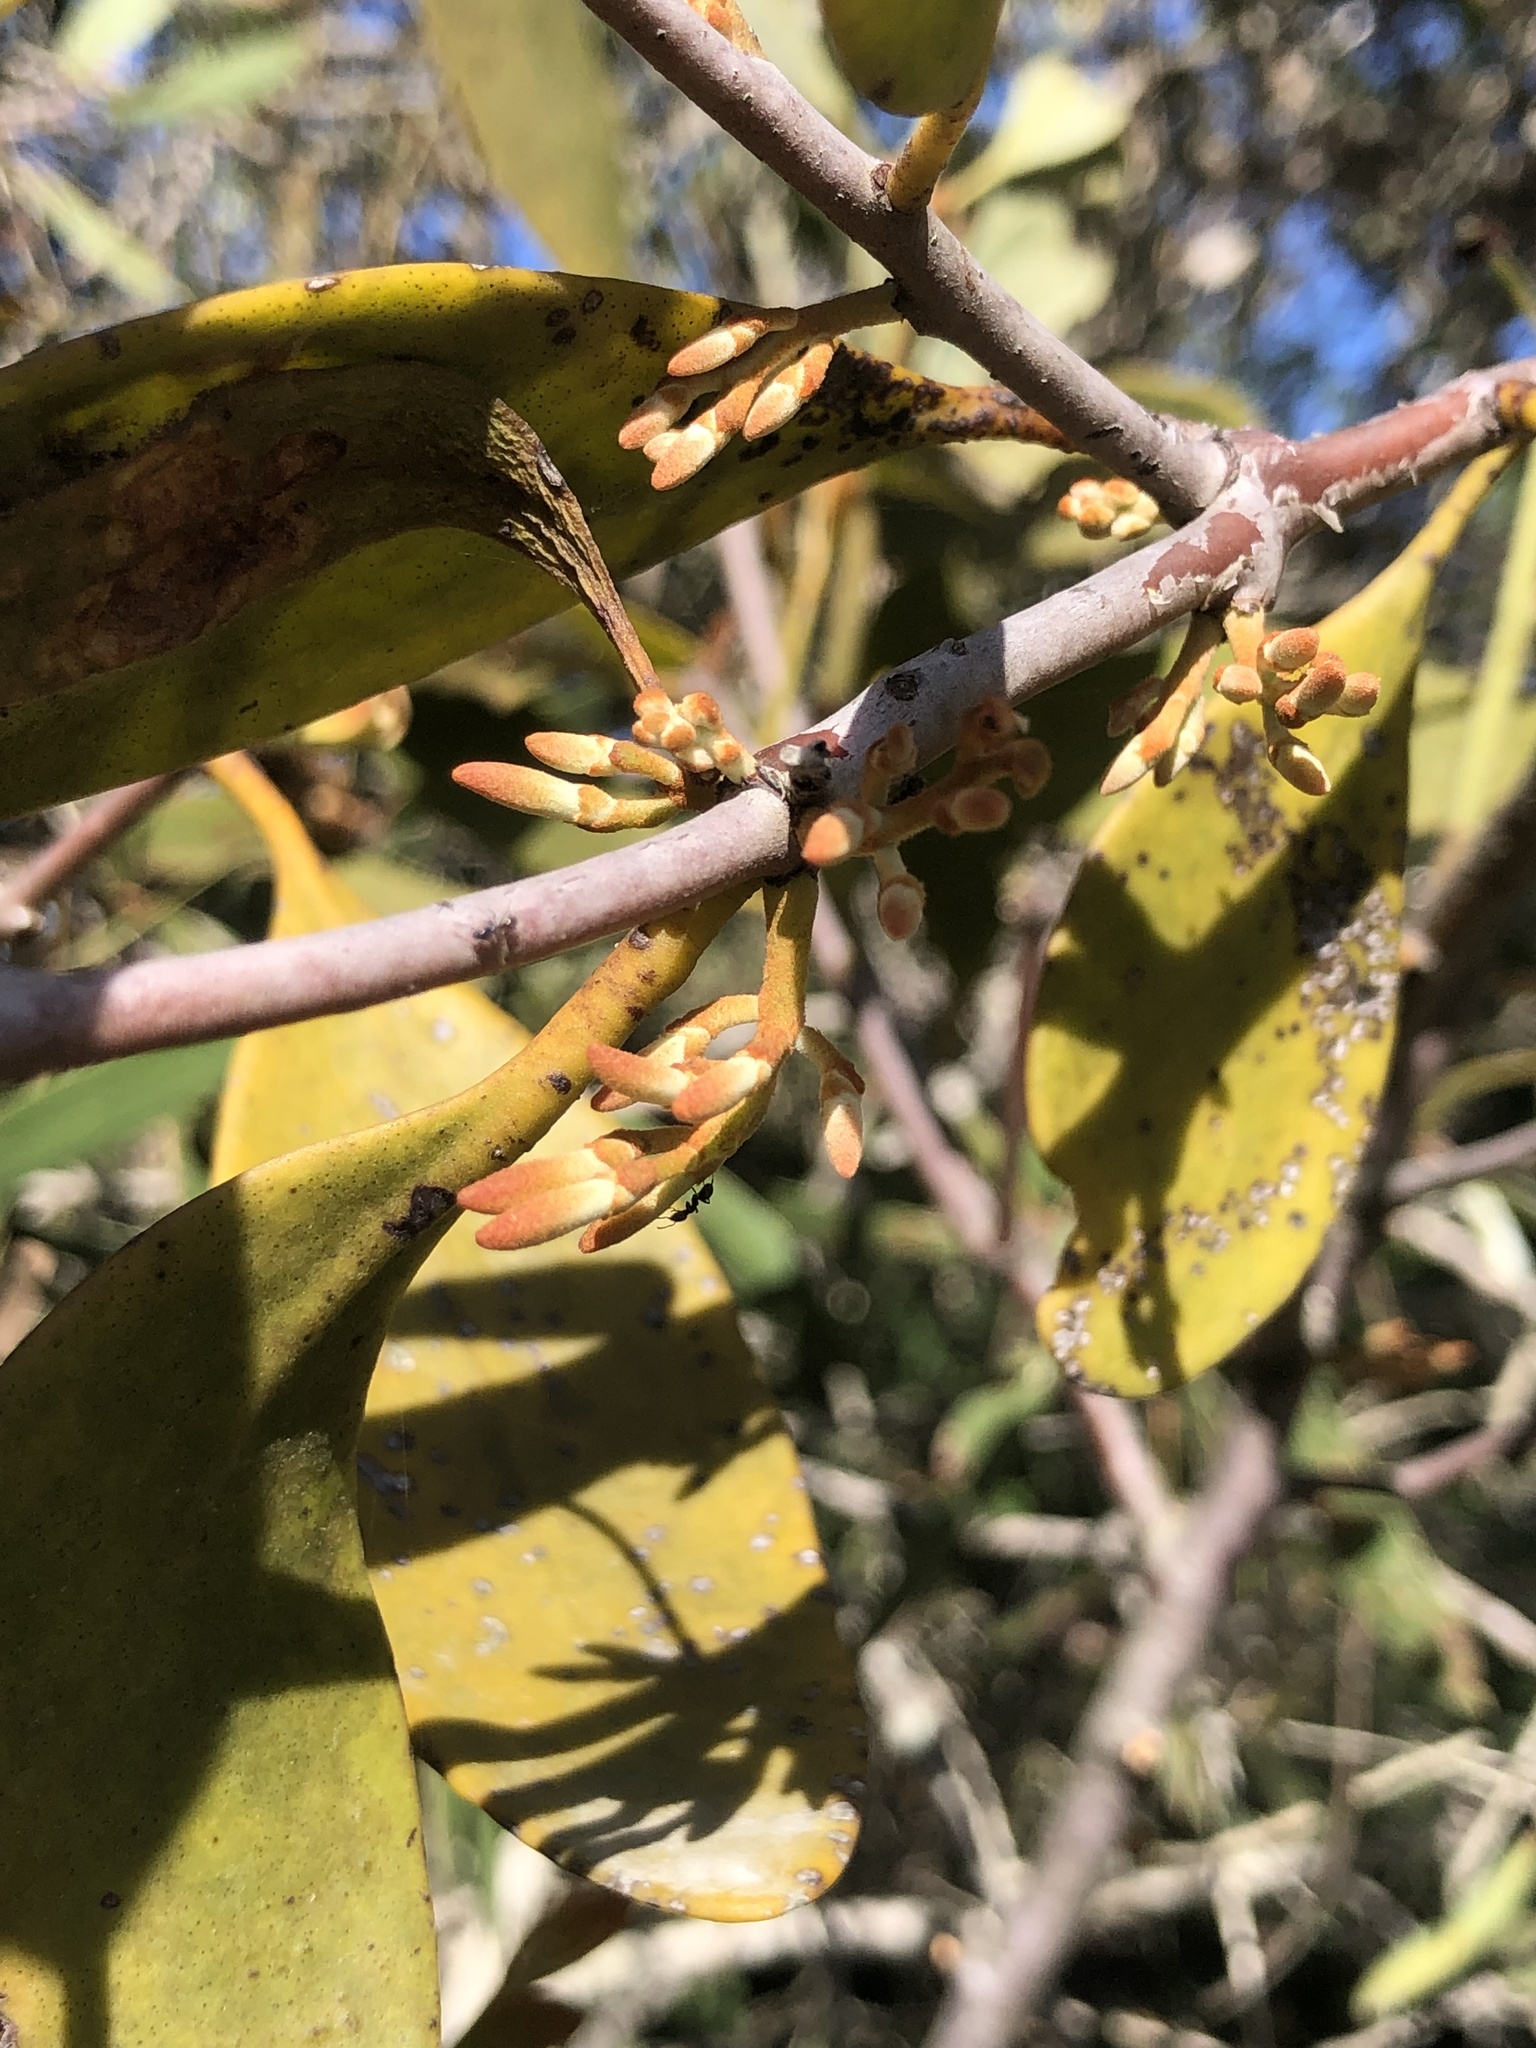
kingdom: Plantae
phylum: Tracheophyta
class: Magnoliopsida
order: Santalales
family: Loranthaceae
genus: Dendrophthoe
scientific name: Dendrophthoe vitellina
